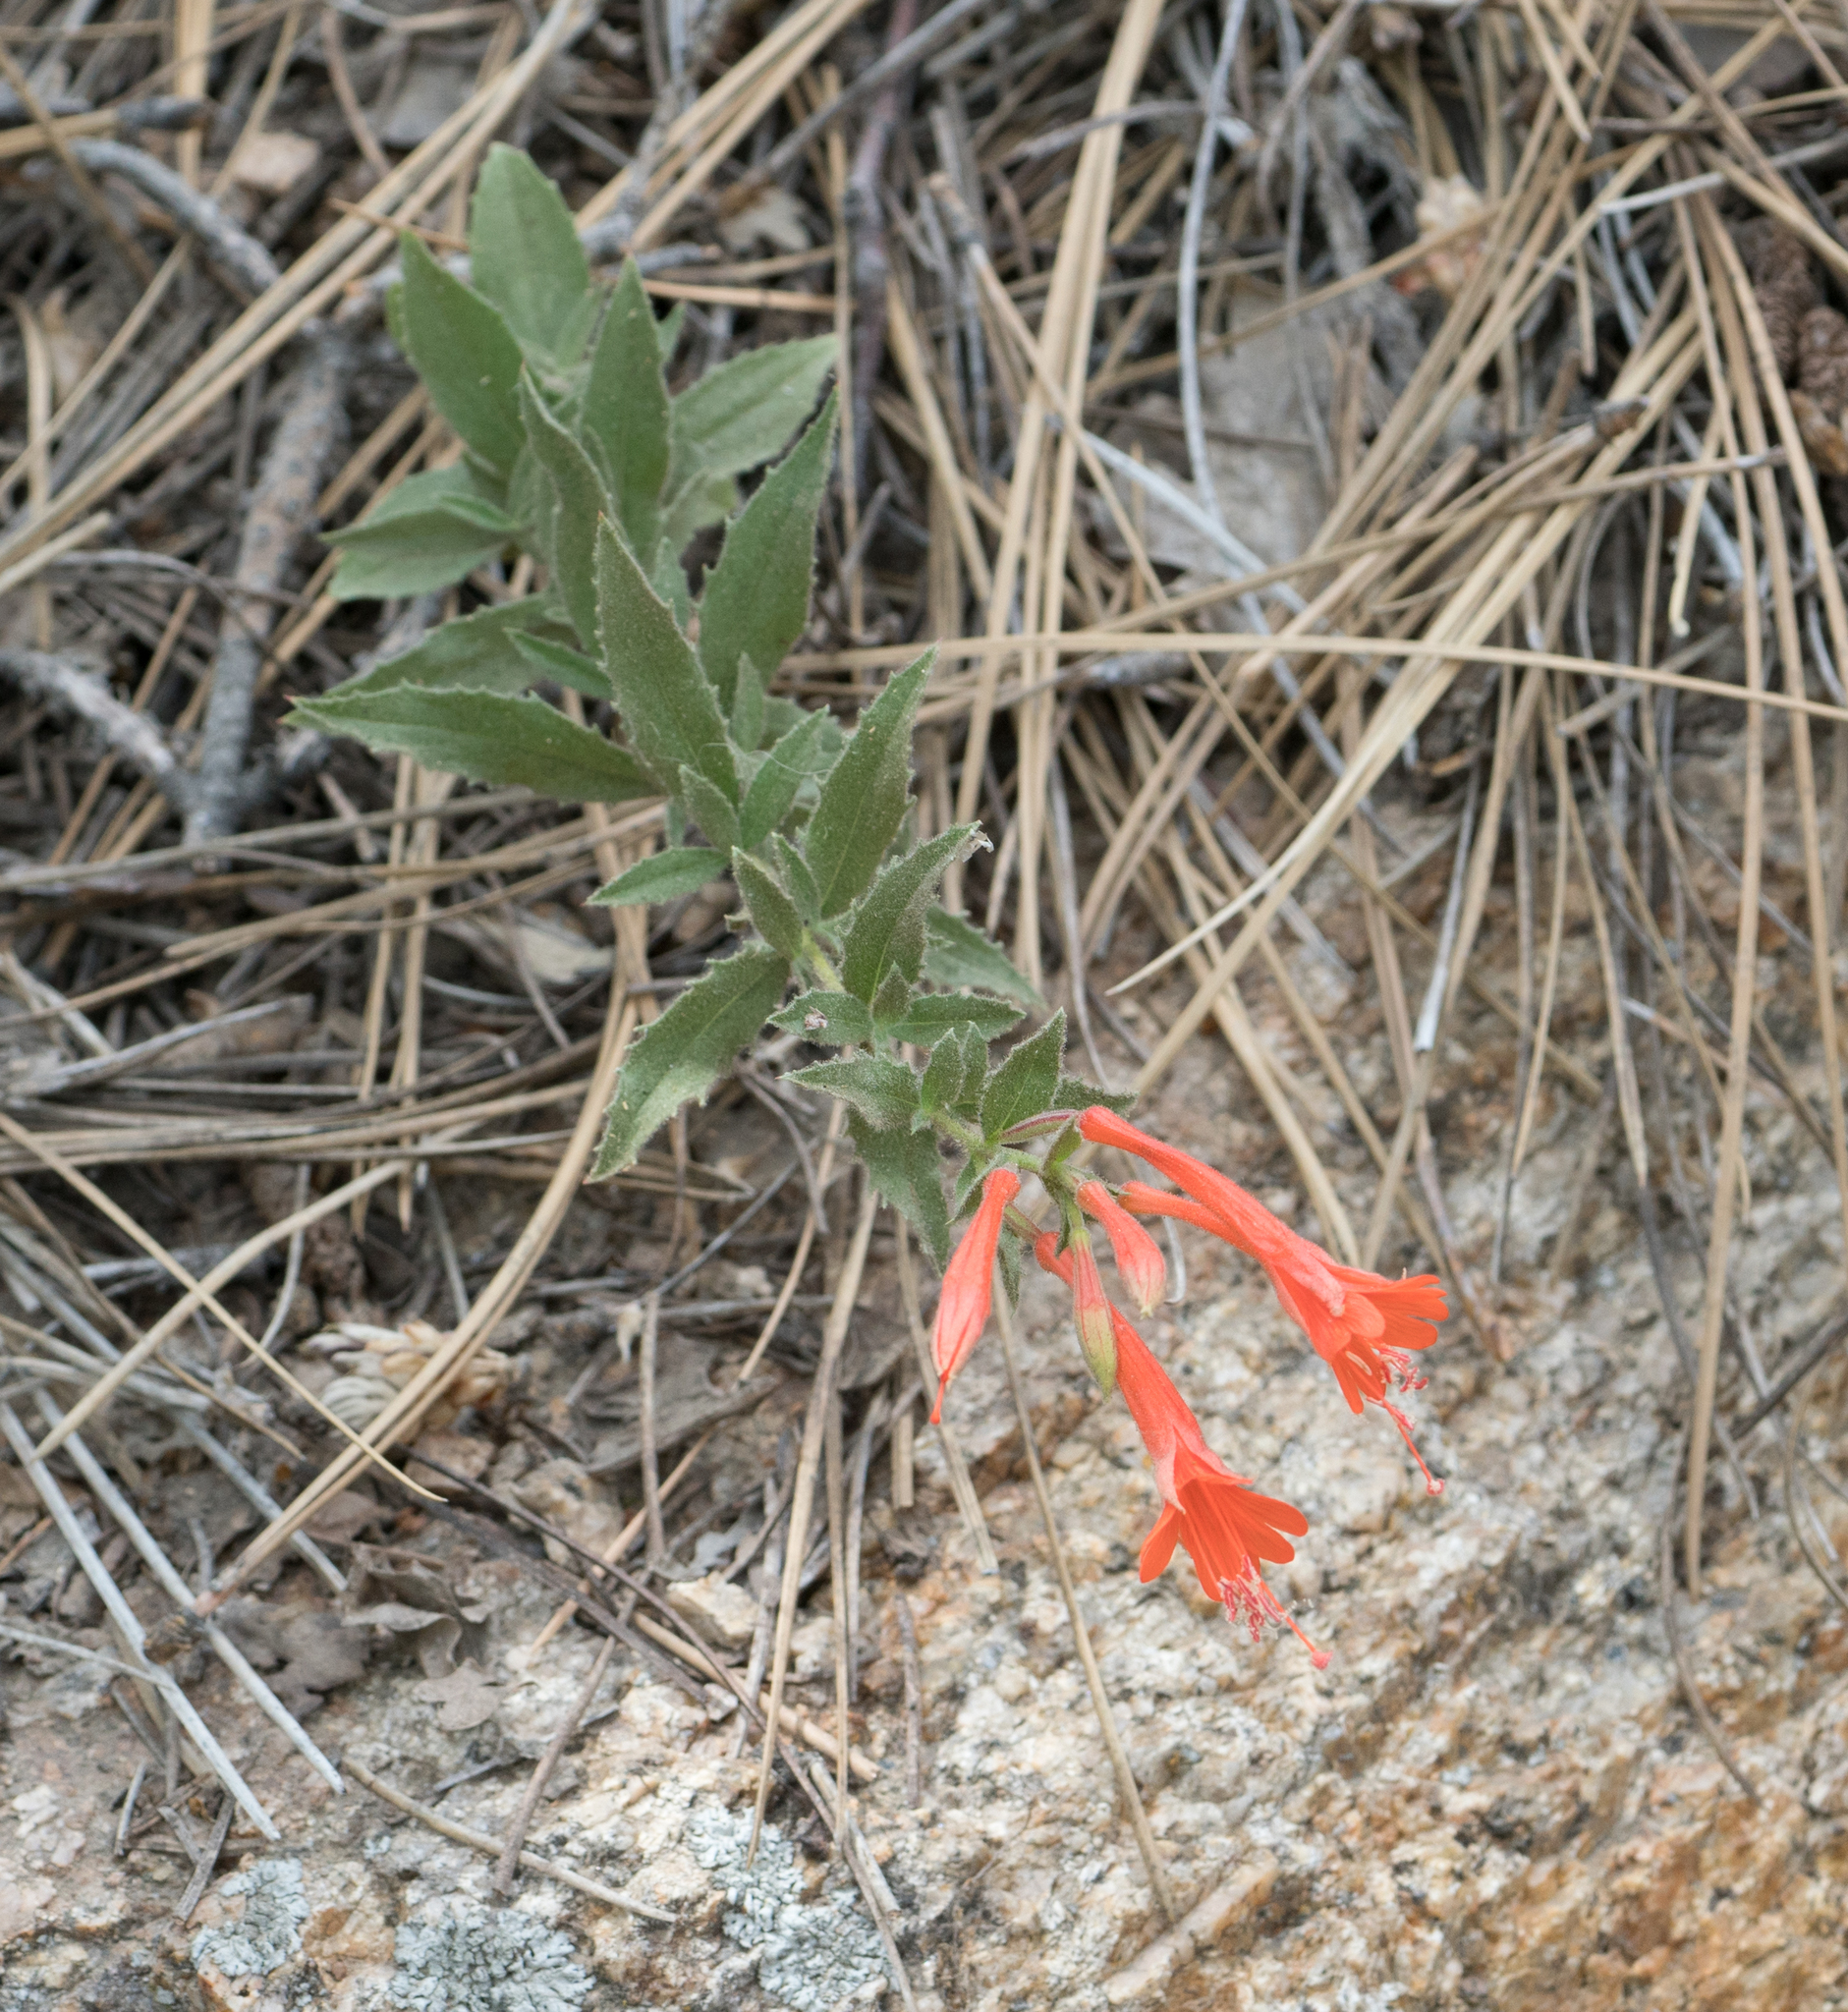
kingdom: Plantae
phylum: Tracheophyta
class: Magnoliopsida
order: Myrtales
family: Onagraceae
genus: Epilobium
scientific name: Epilobium canum
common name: California-fuchsia
